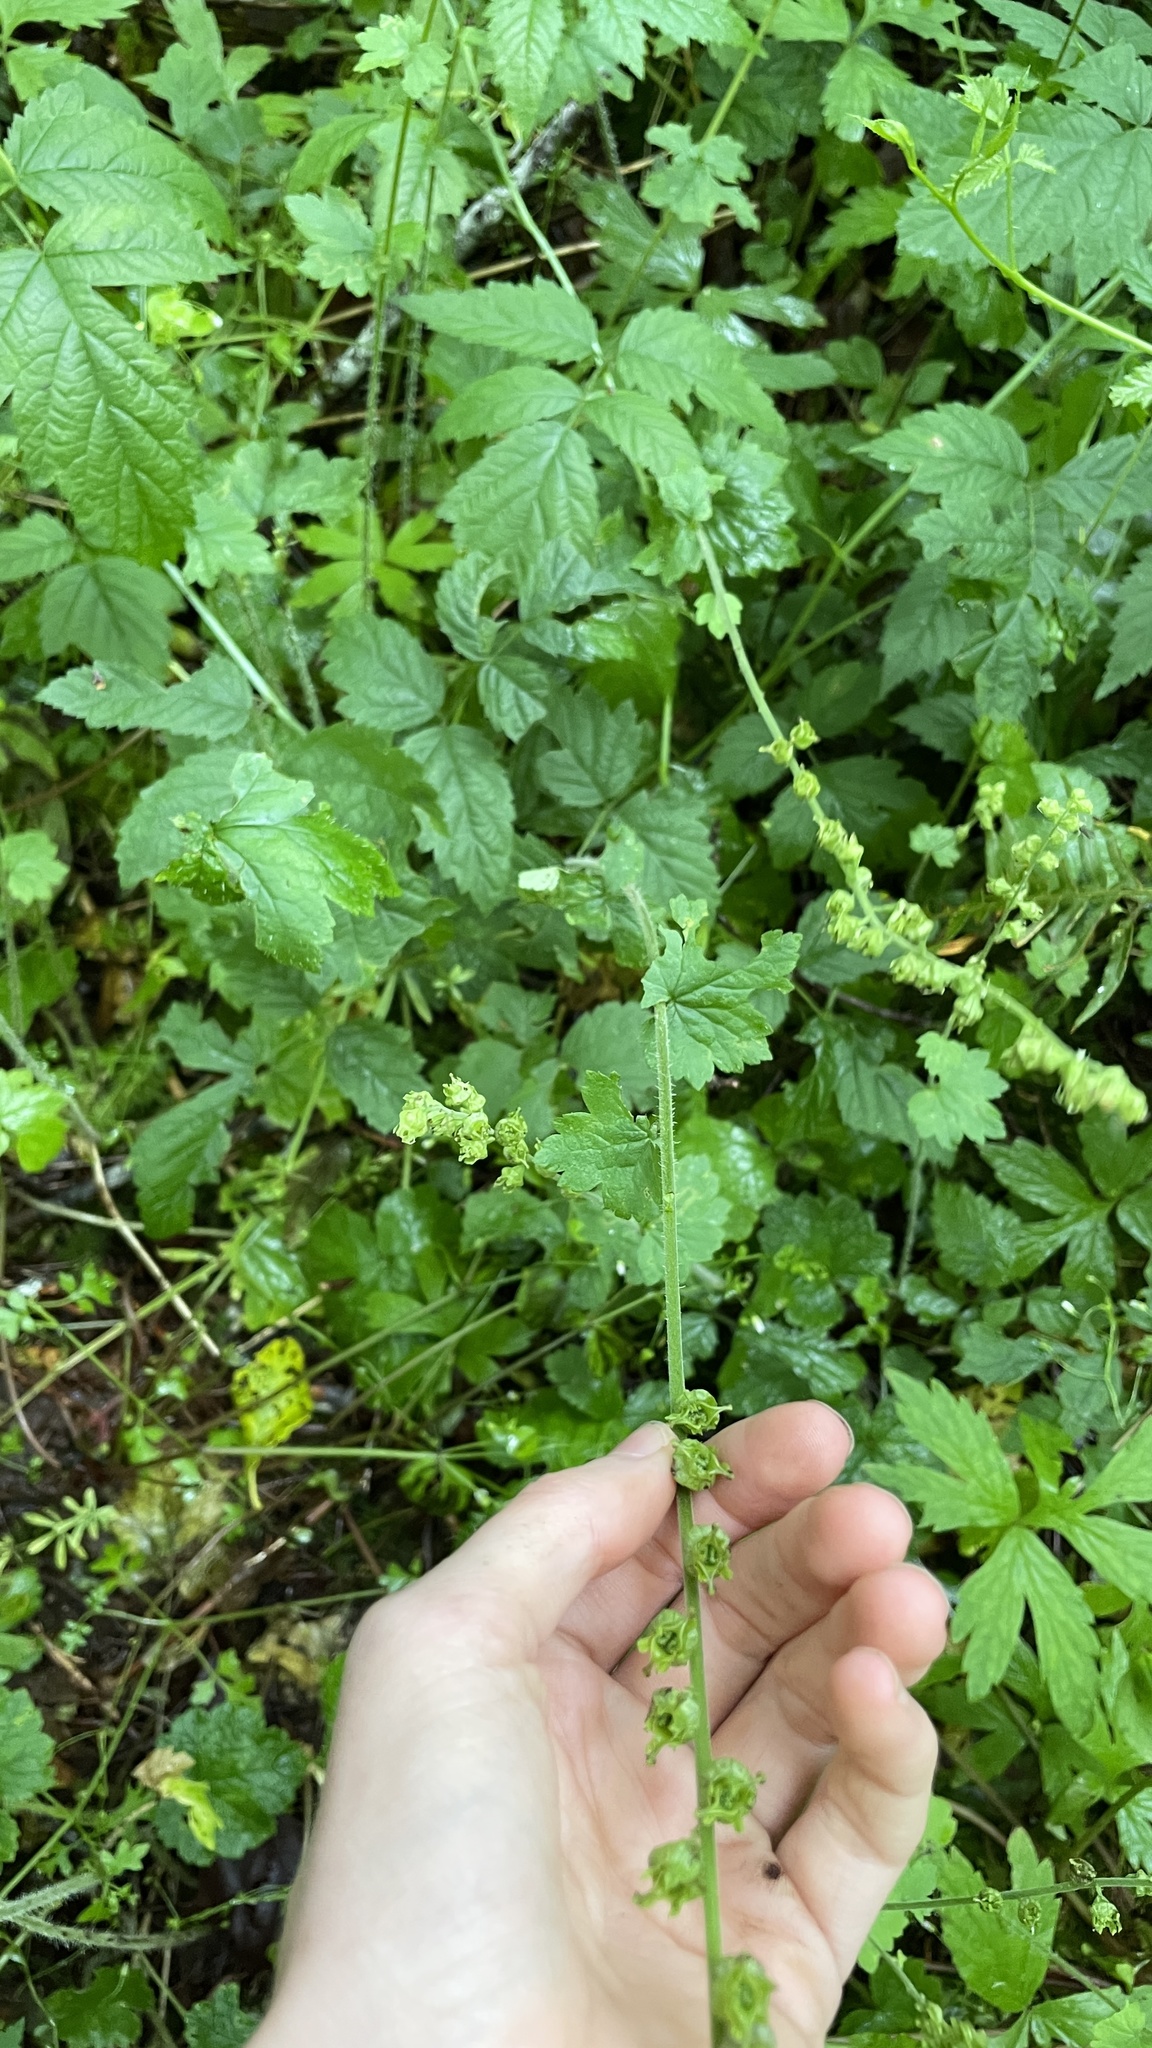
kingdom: Plantae
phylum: Tracheophyta
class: Magnoliopsida
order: Saxifragales
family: Saxifragaceae
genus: Tellima
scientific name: Tellima grandiflora
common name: Fringecups
